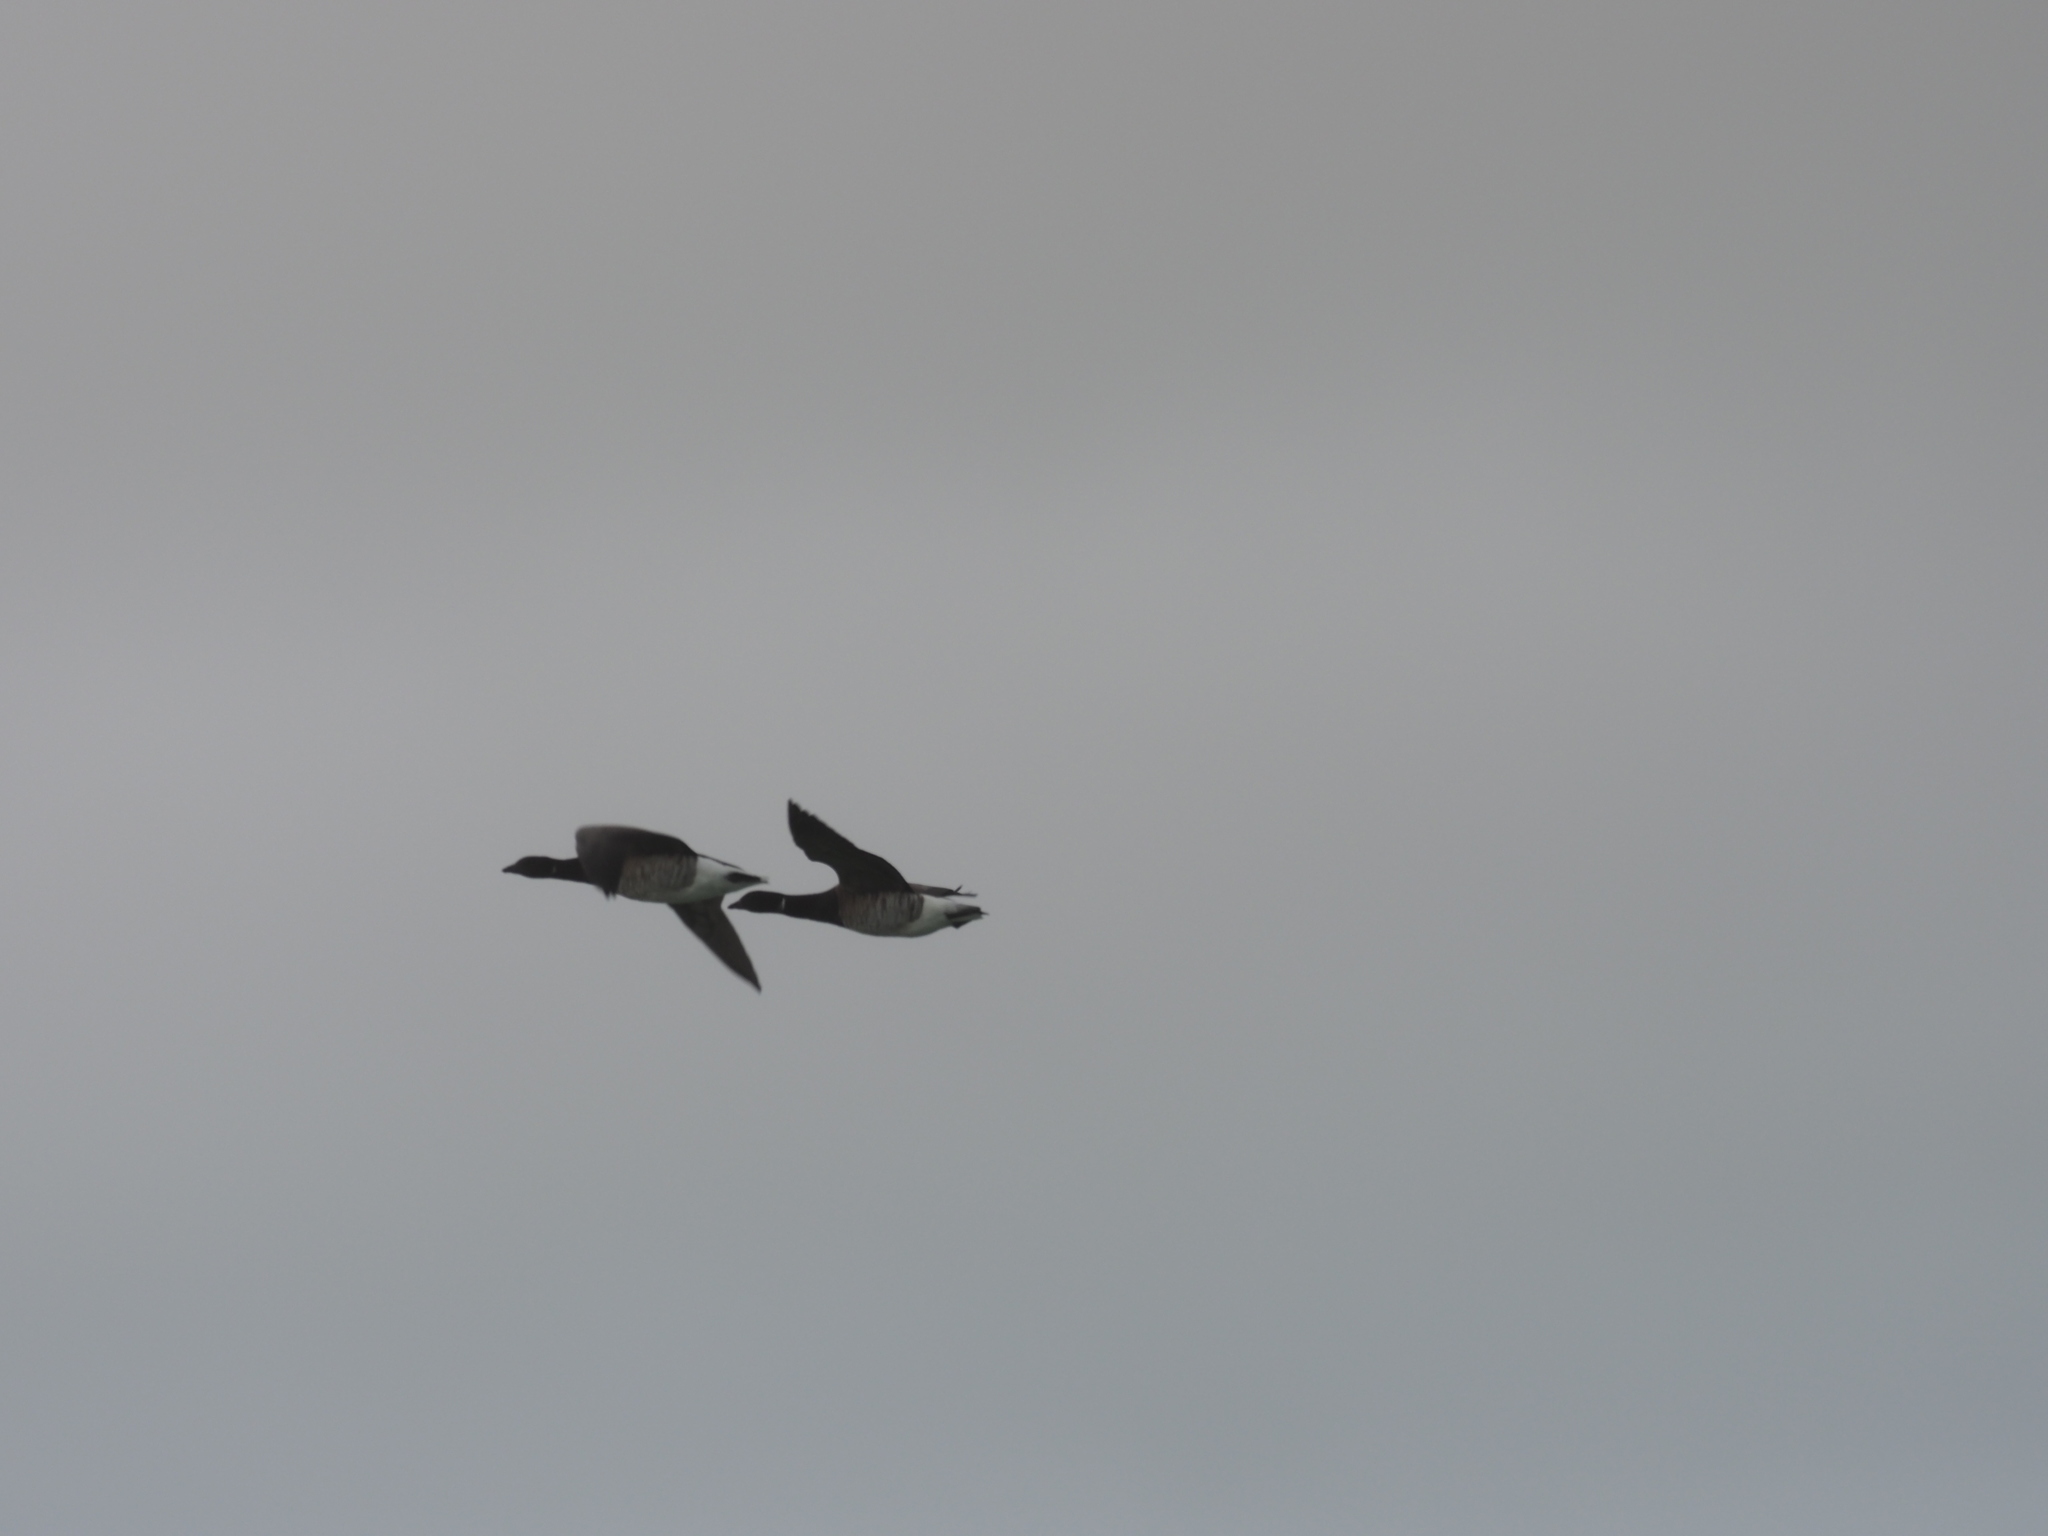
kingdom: Animalia
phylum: Chordata
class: Aves
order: Anseriformes
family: Anatidae
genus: Branta
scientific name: Branta bernicla
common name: Brant goose
